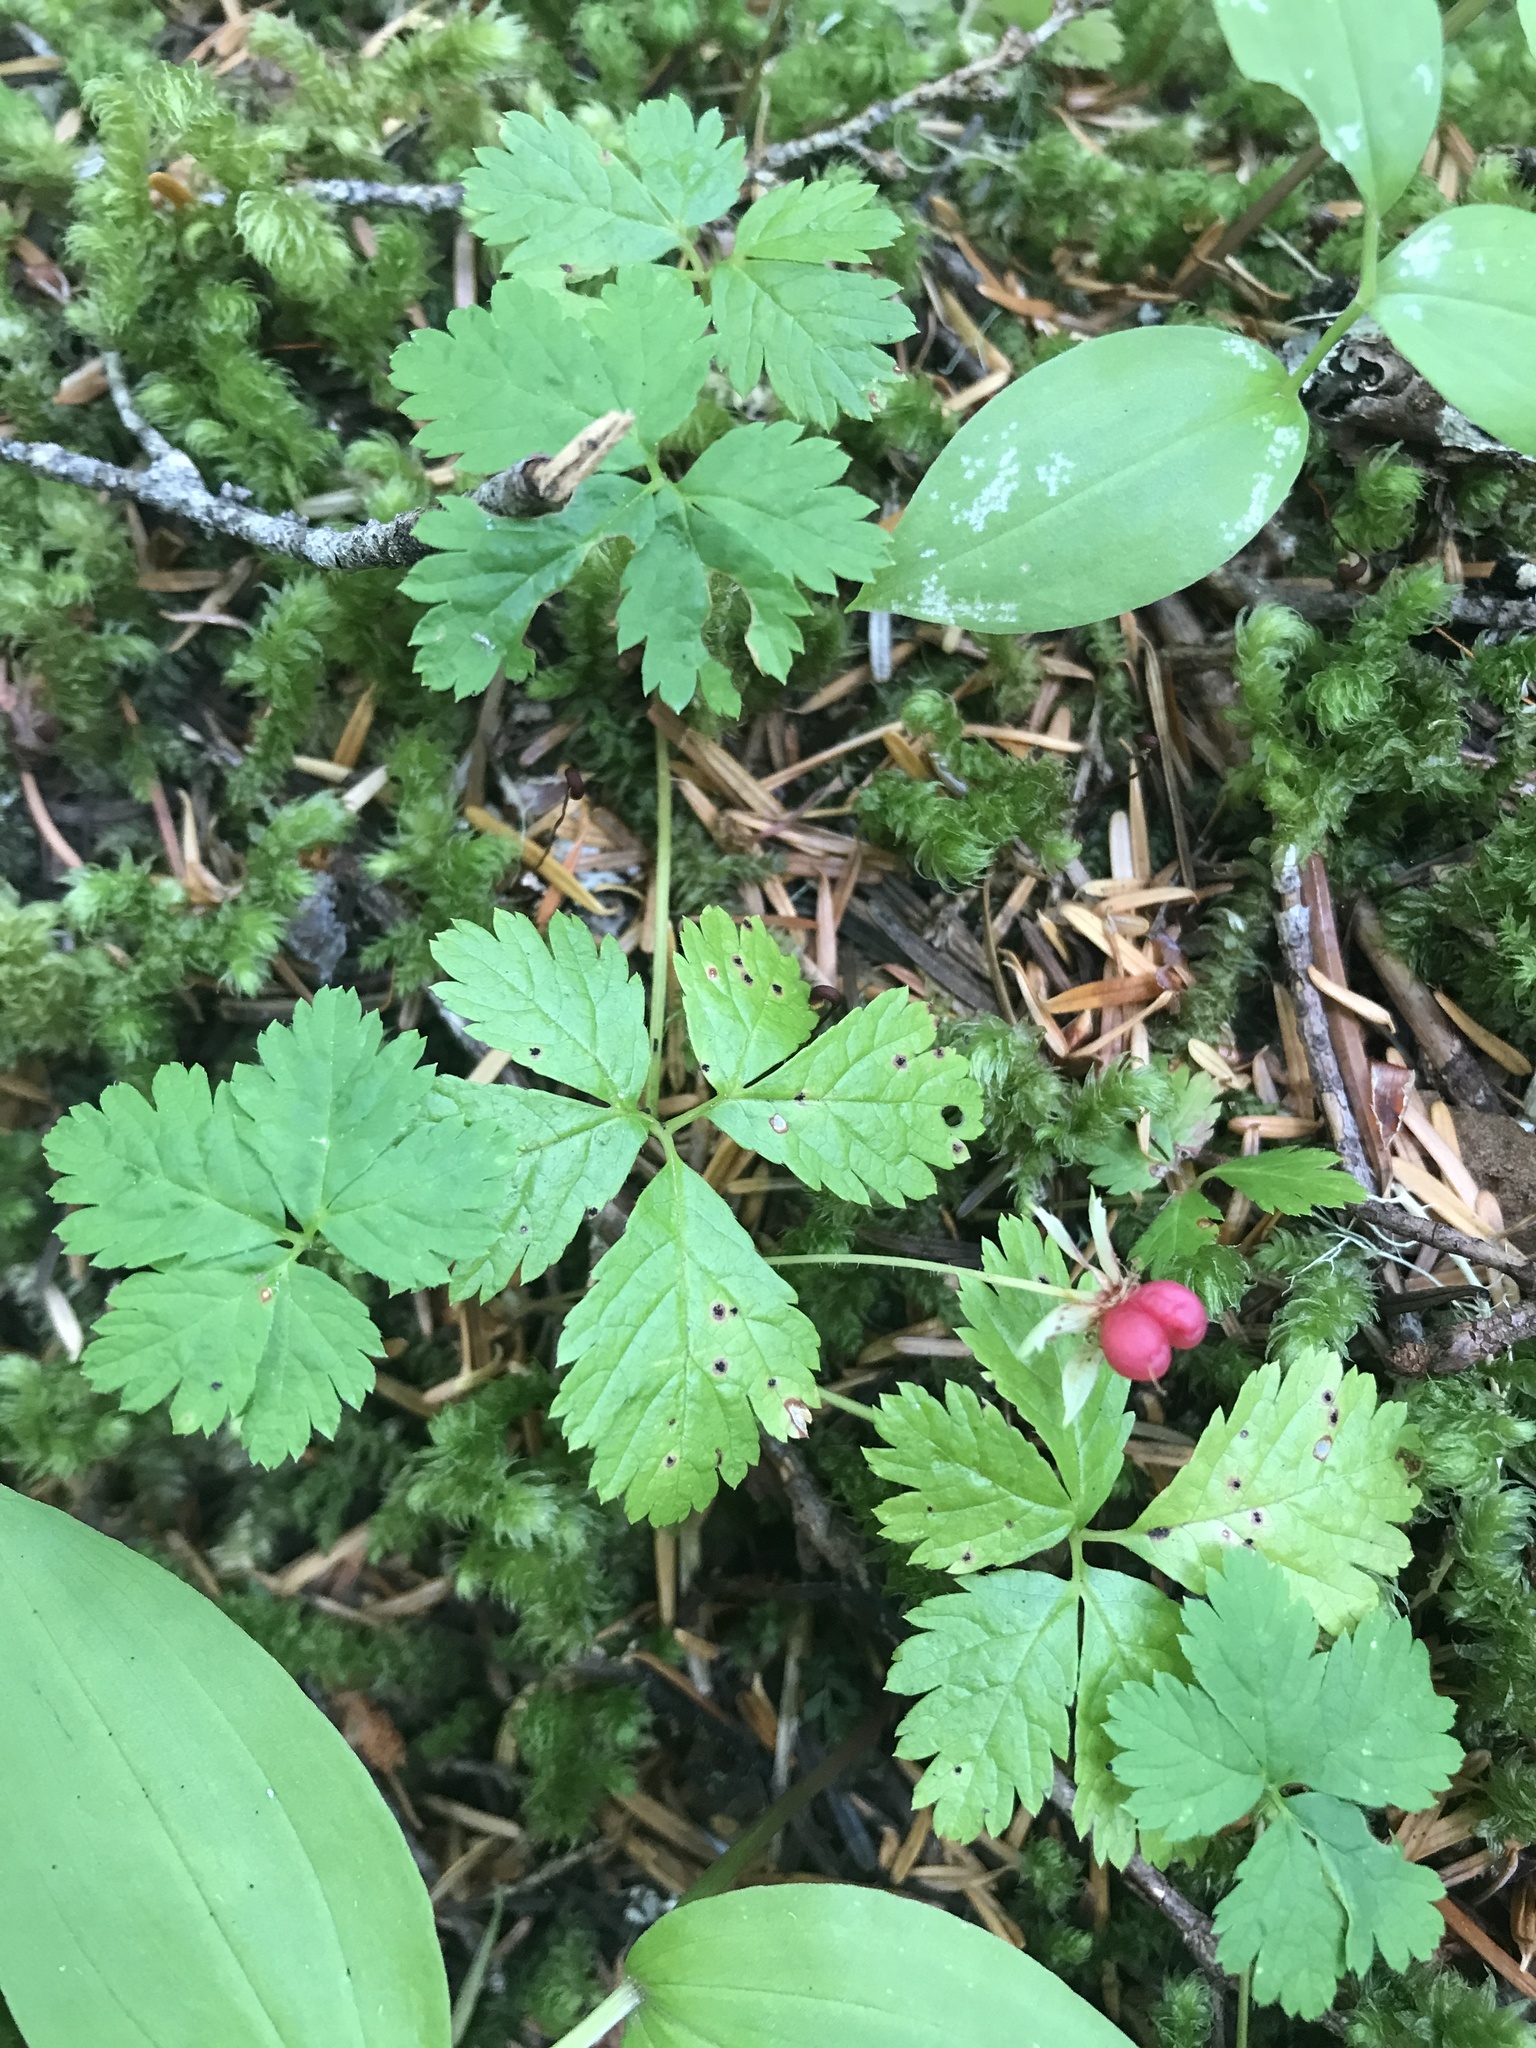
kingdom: Plantae
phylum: Tracheophyta
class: Magnoliopsida
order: Rosales
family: Rosaceae
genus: Rubus
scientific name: Rubus pedatus
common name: Creeping raspberry
